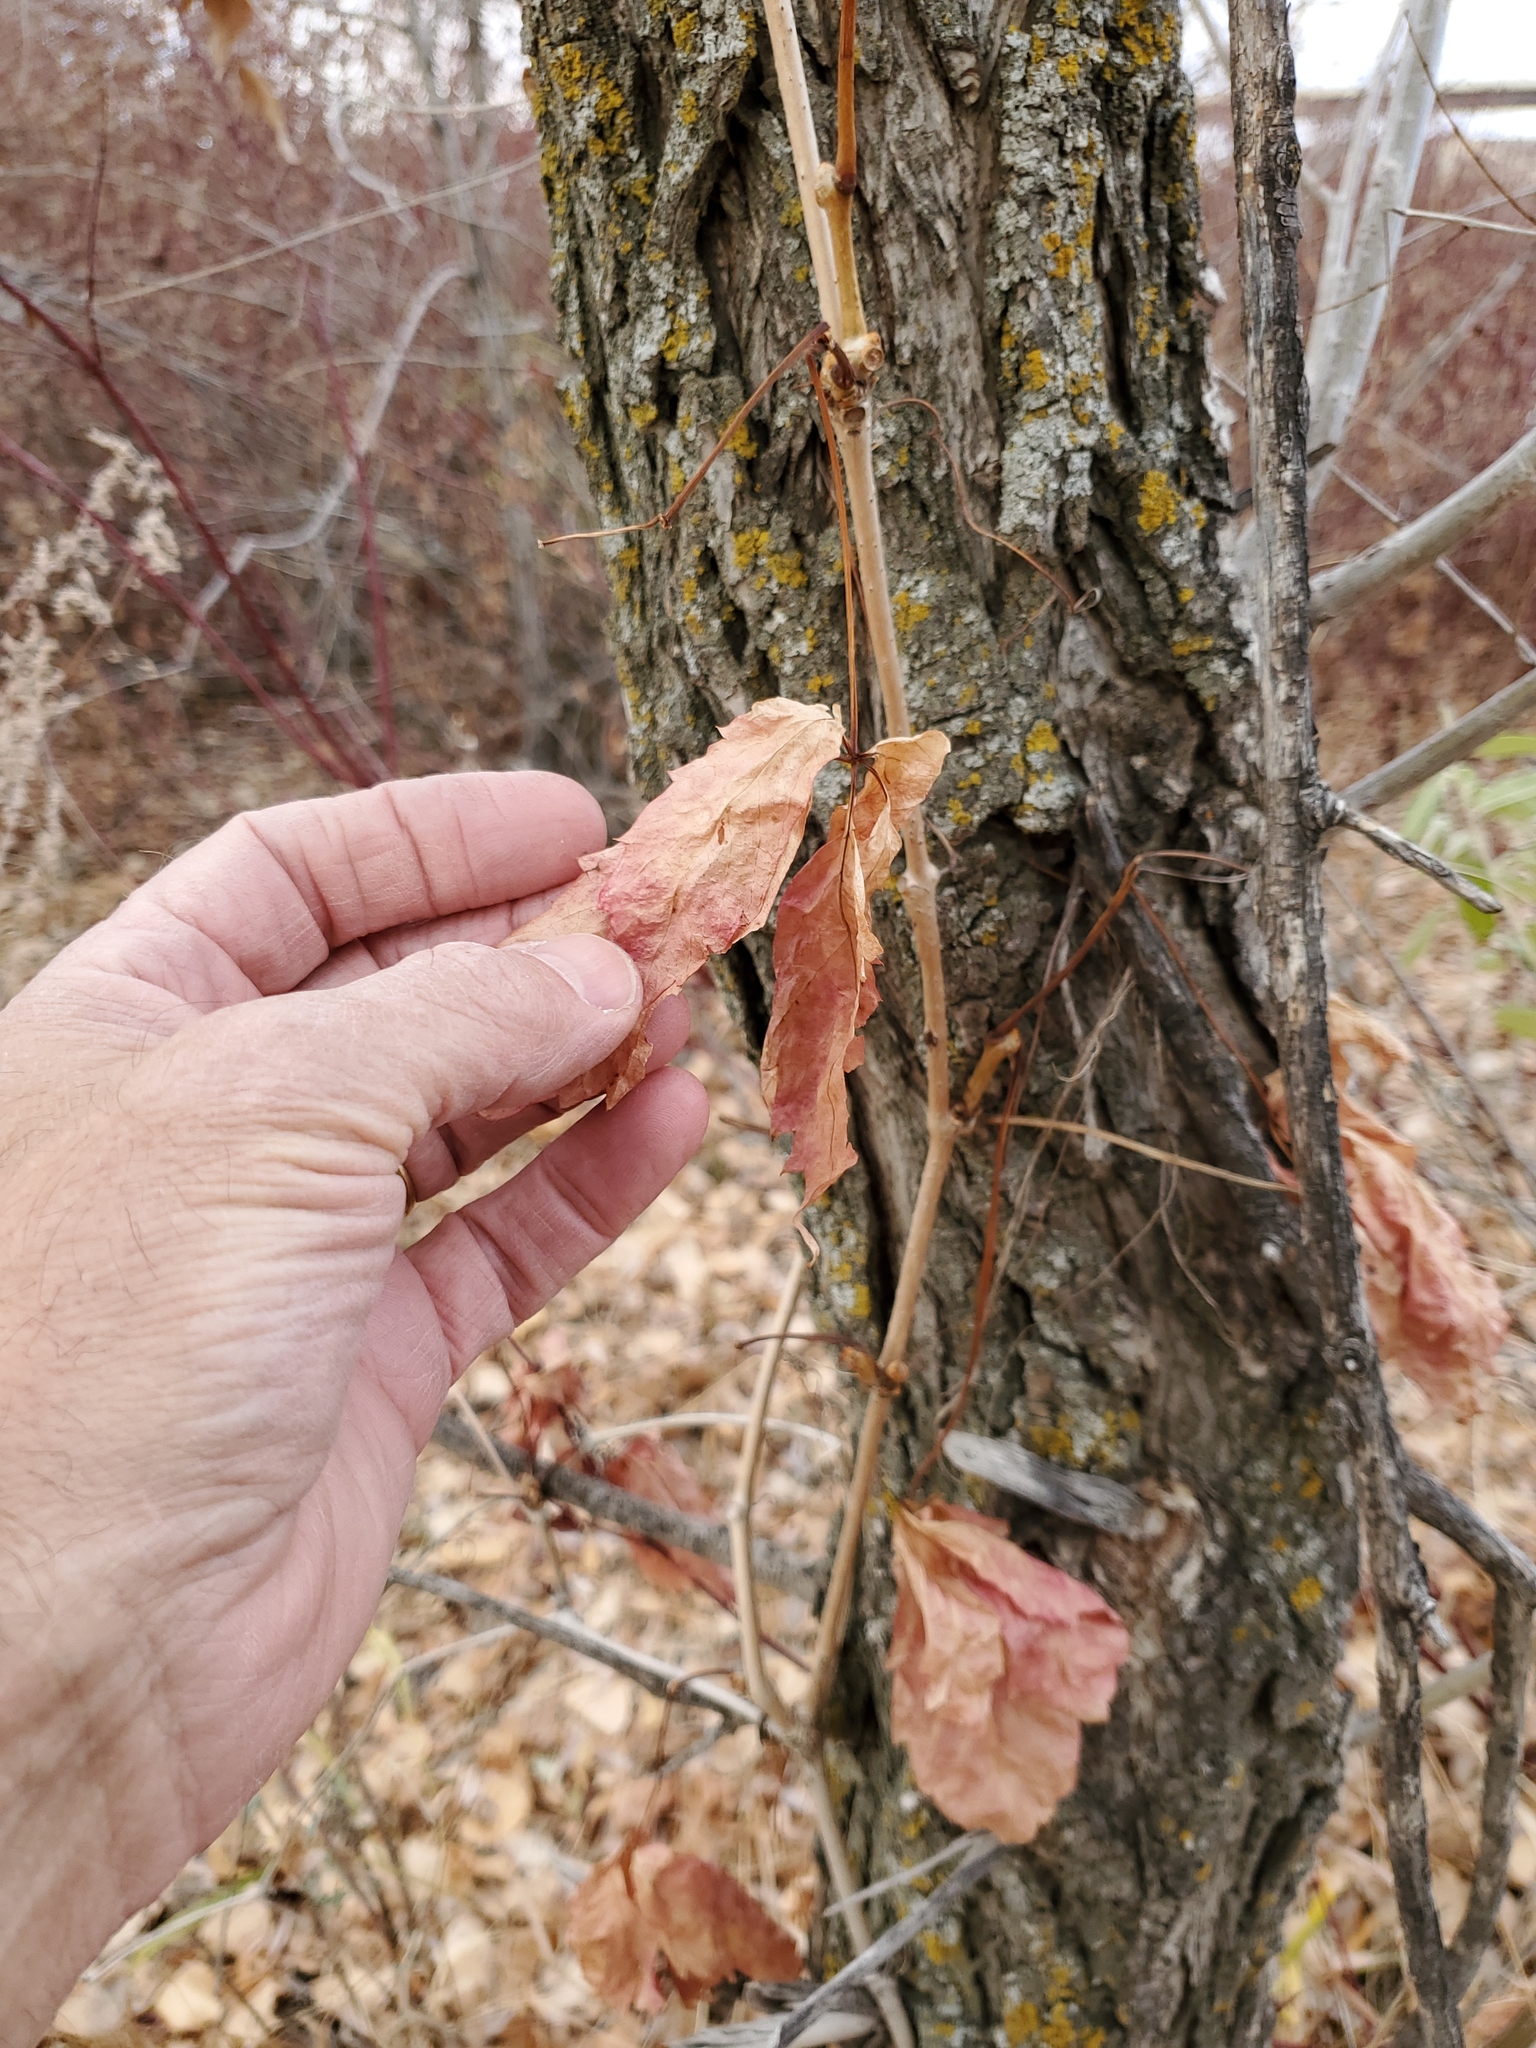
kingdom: Plantae
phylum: Tracheophyta
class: Magnoliopsida
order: Vitales
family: Vitaceae
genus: Parthenocissus
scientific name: Parthenocissus quinquefolia
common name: Virginia-creeper
